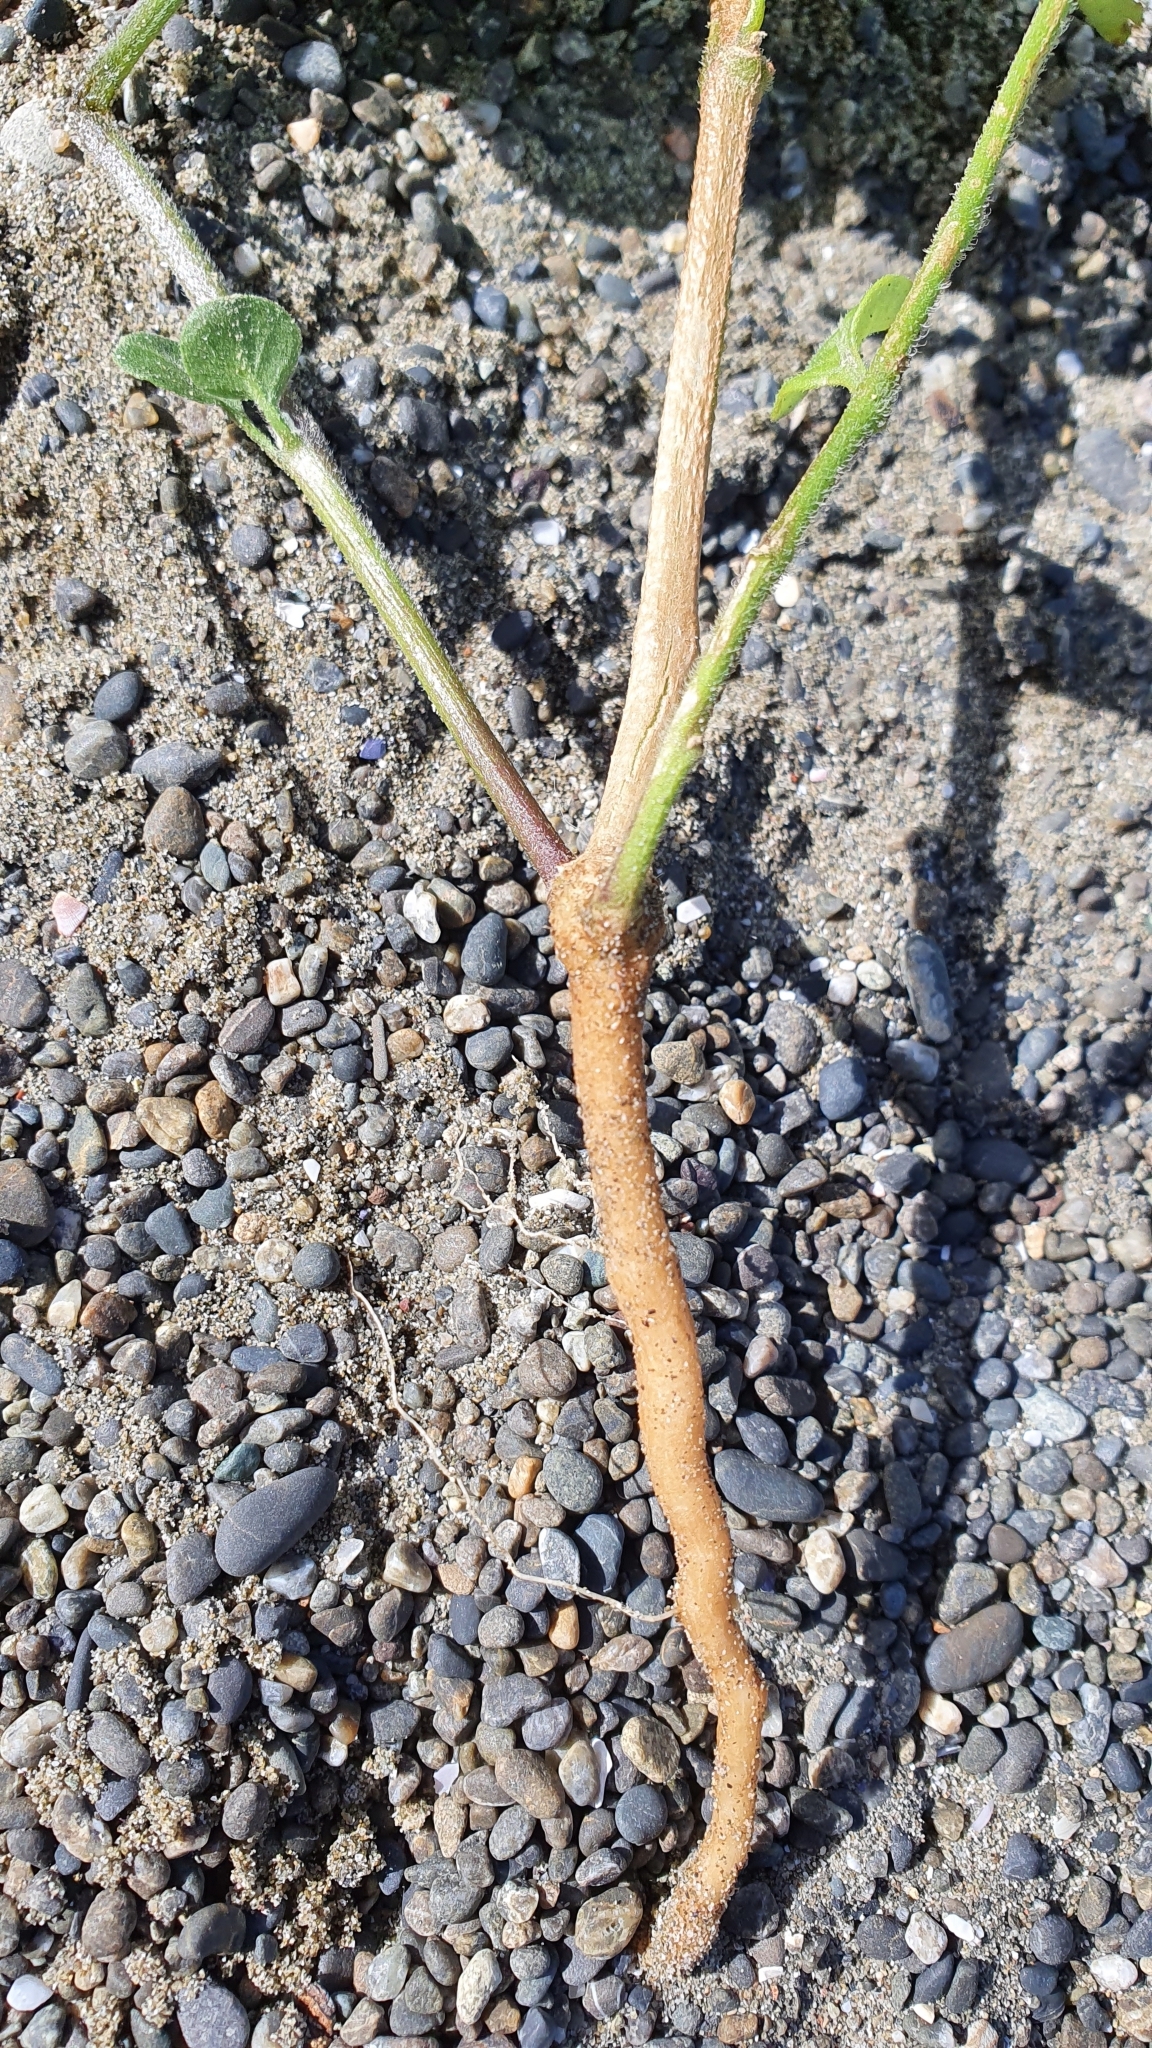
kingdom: Plantae
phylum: Tracheophyta
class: Magnoliopsida
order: Solanales
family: Solanaceae
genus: Salpichroa
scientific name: Salpichroa origanifolia
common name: Lily-of-the-valley-vine
